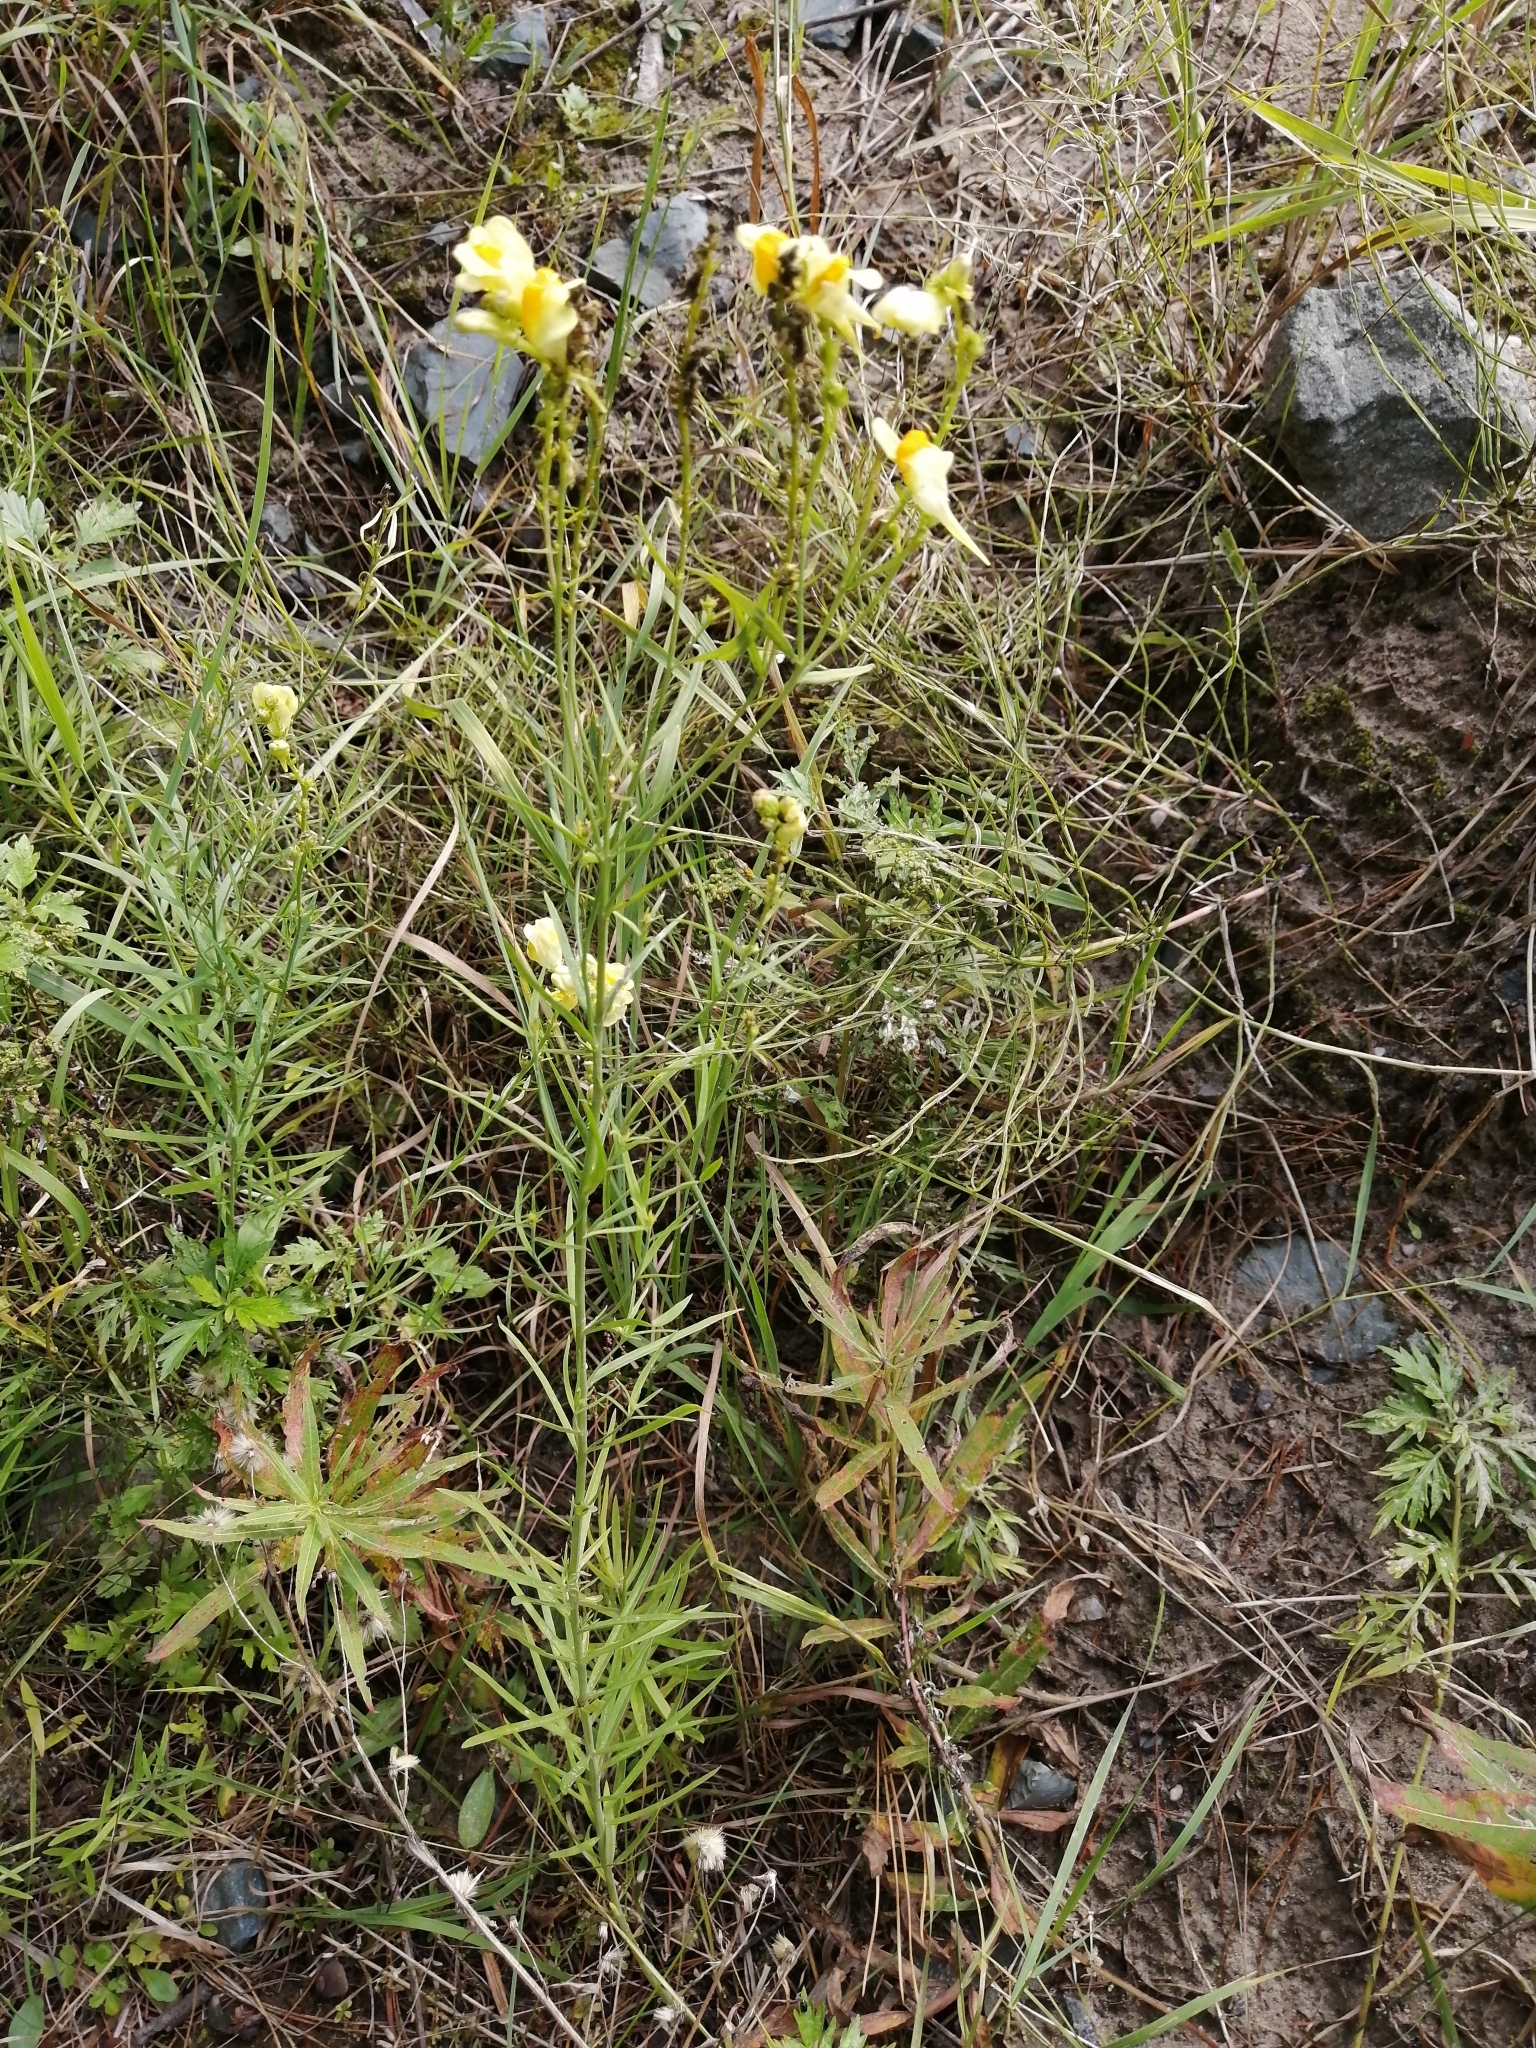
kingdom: Plantae
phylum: Tracheophyta
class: Magnoliopsida
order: Lamiales
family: Plantaginaceae
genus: Linaria
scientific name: Linaria vulgaris
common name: Butter and eggs
